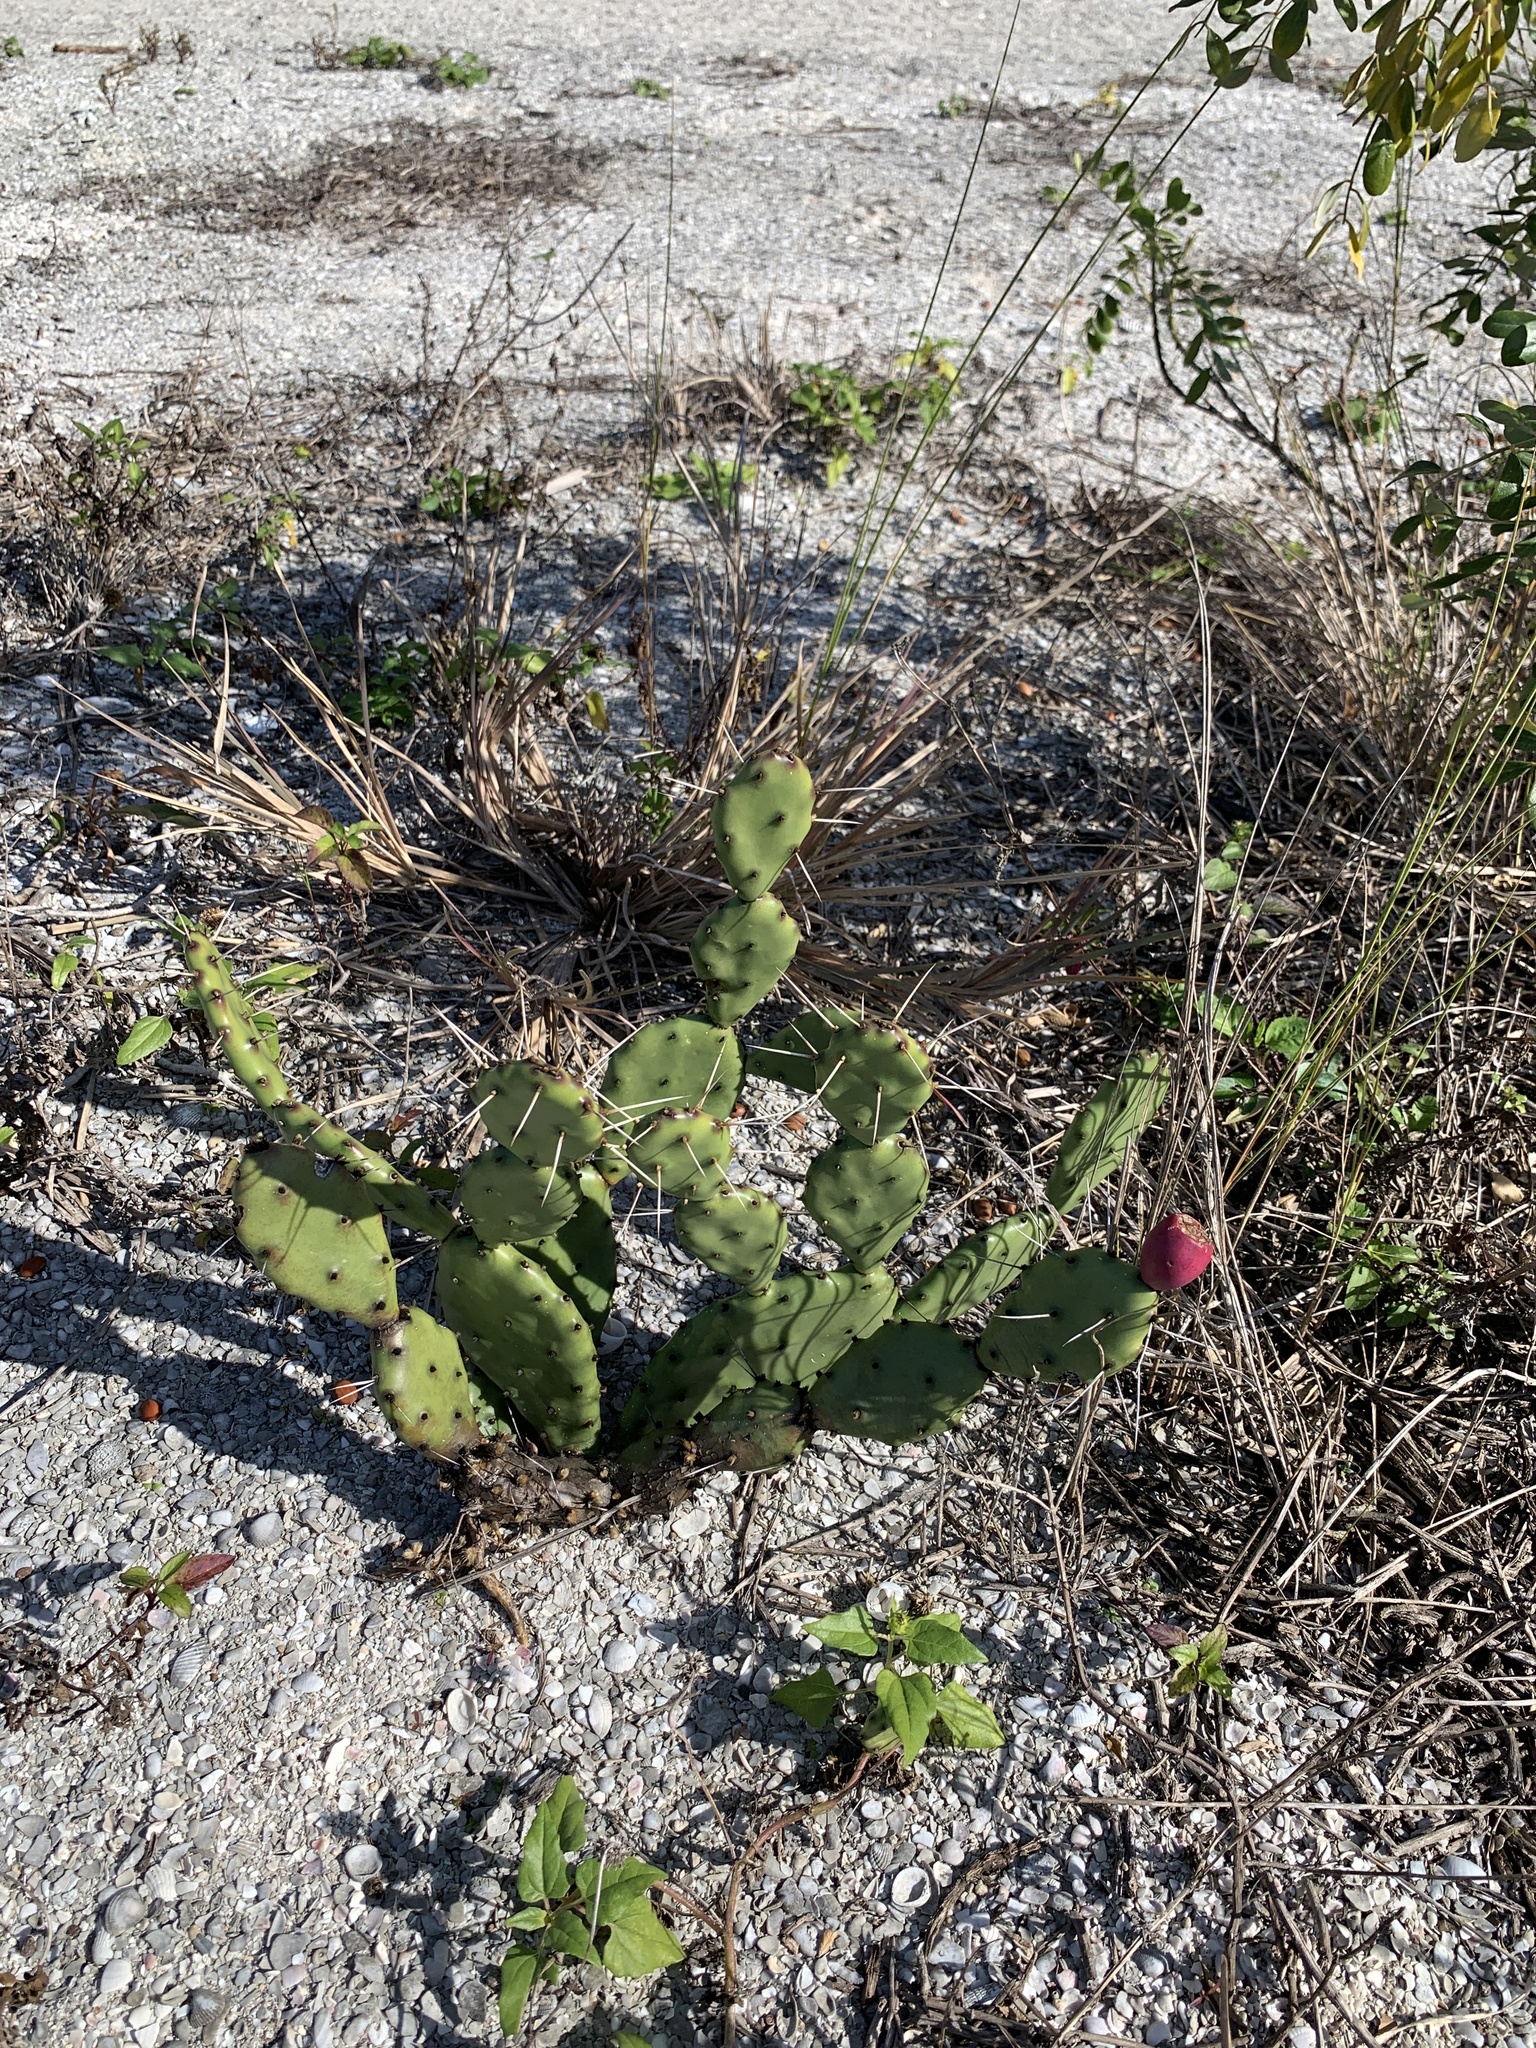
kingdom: Plantae
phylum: Tracheophyta
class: Magnoliopsida
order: Caryophyllales
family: Cactaceae
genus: Opuntia
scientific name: Opuntia austrina
